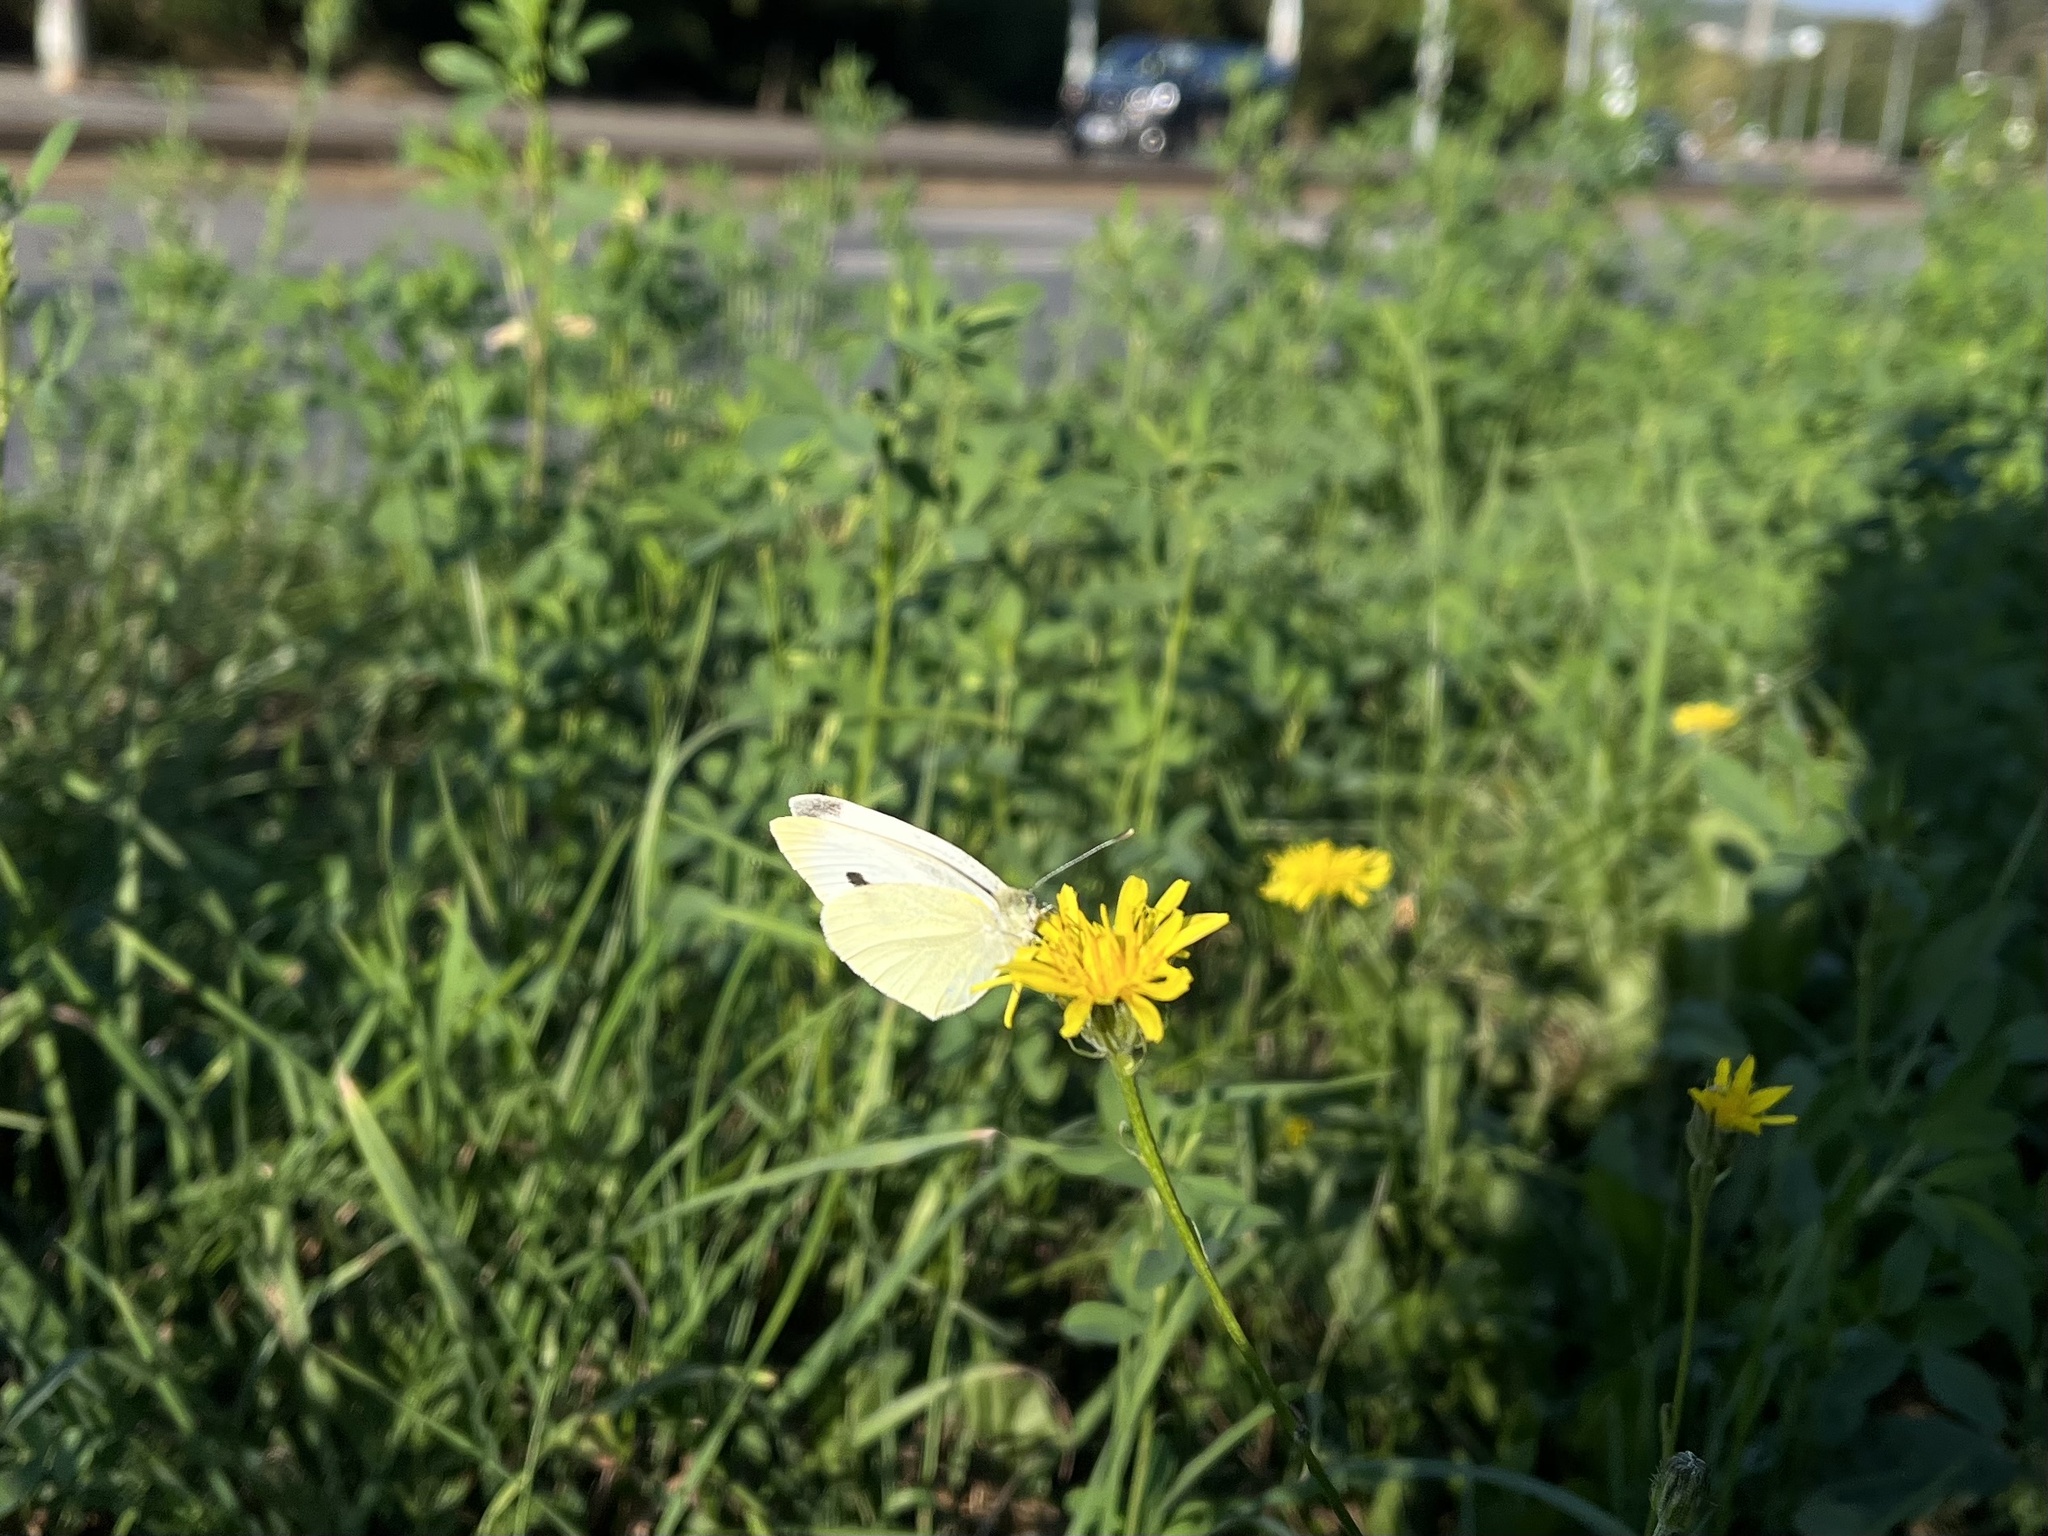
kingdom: Animalia
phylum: Arthropoda
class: Insecta
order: Lepidoptera
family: Pieridae
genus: Pieris
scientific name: Pieris rapae
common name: Small white
